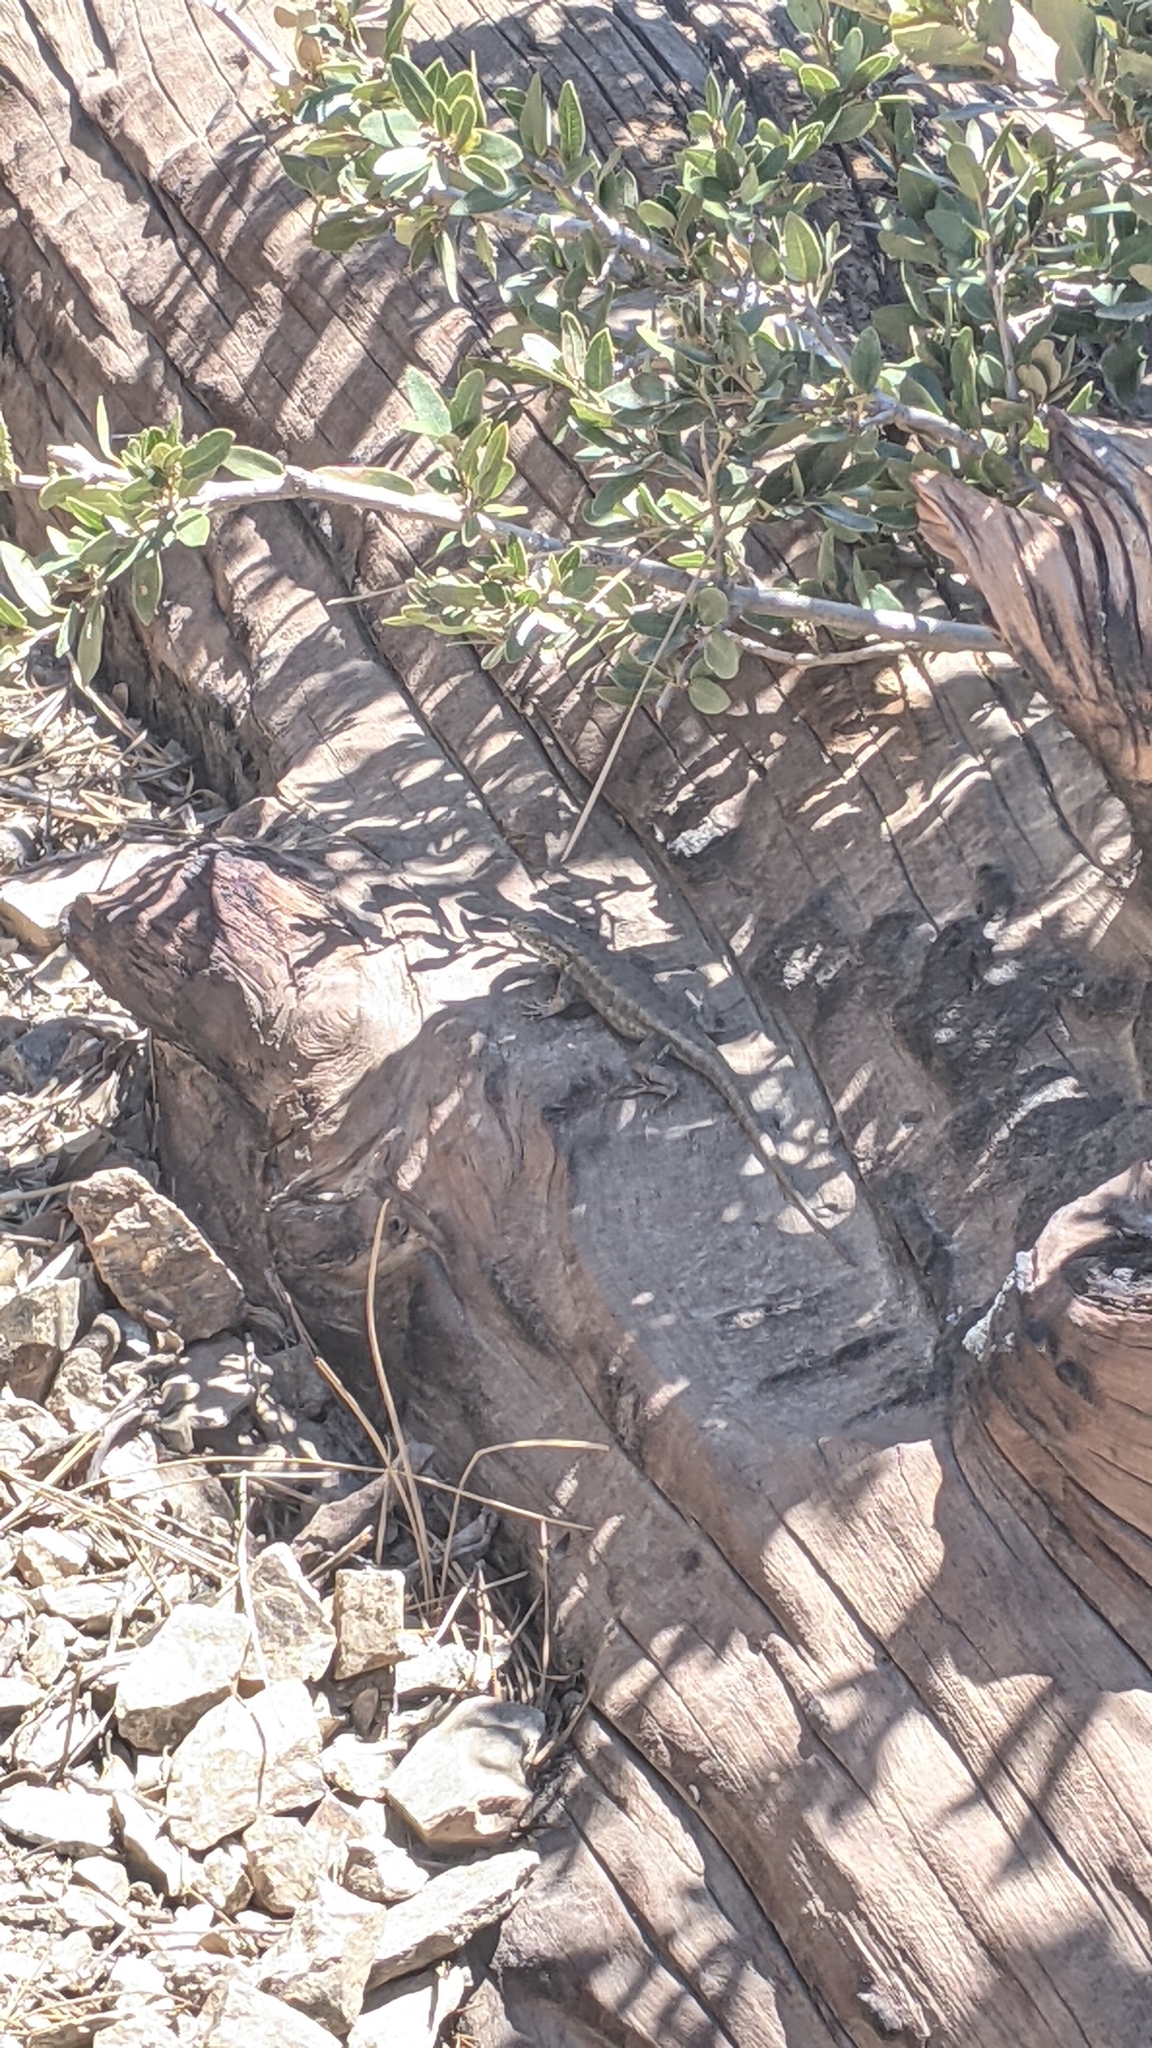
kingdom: Animalia
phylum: Chordata
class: Squamata
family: Phrynosomatidae
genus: Sceloporus
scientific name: Sceloporus graciosus
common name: Sagebrush lizard
